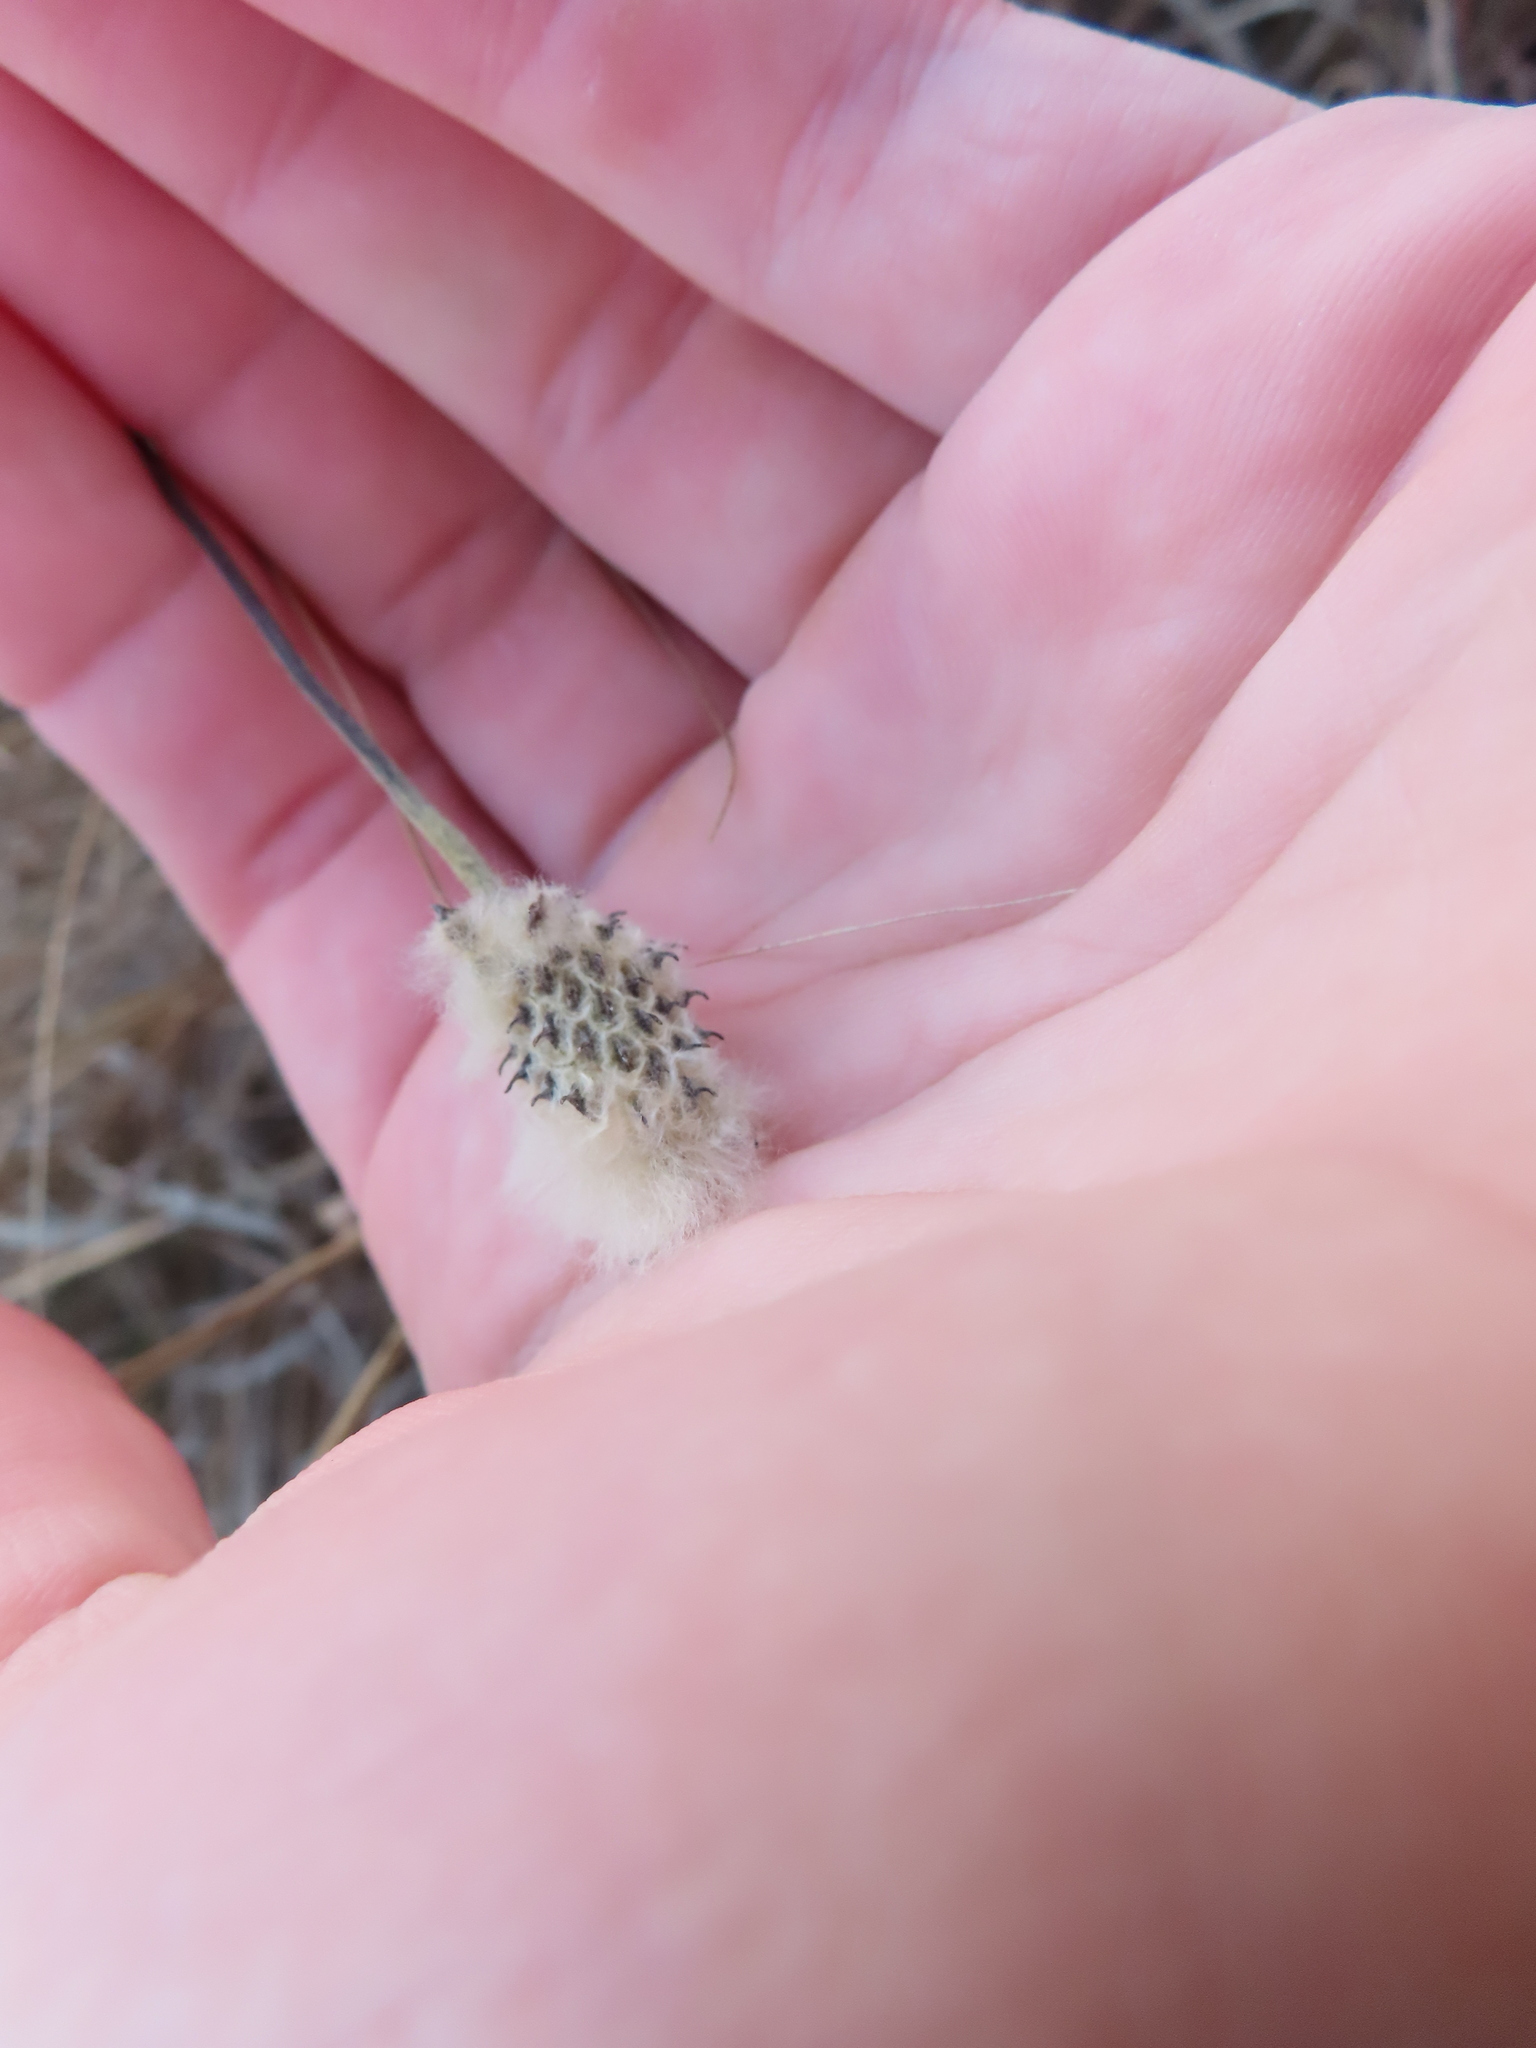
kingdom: Plantae
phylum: Tracheophyta
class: Magnoliopsida
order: Ranunculales
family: Ranunculaceae
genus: Anemone
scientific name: Anemone virginiana
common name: Tall anemone
